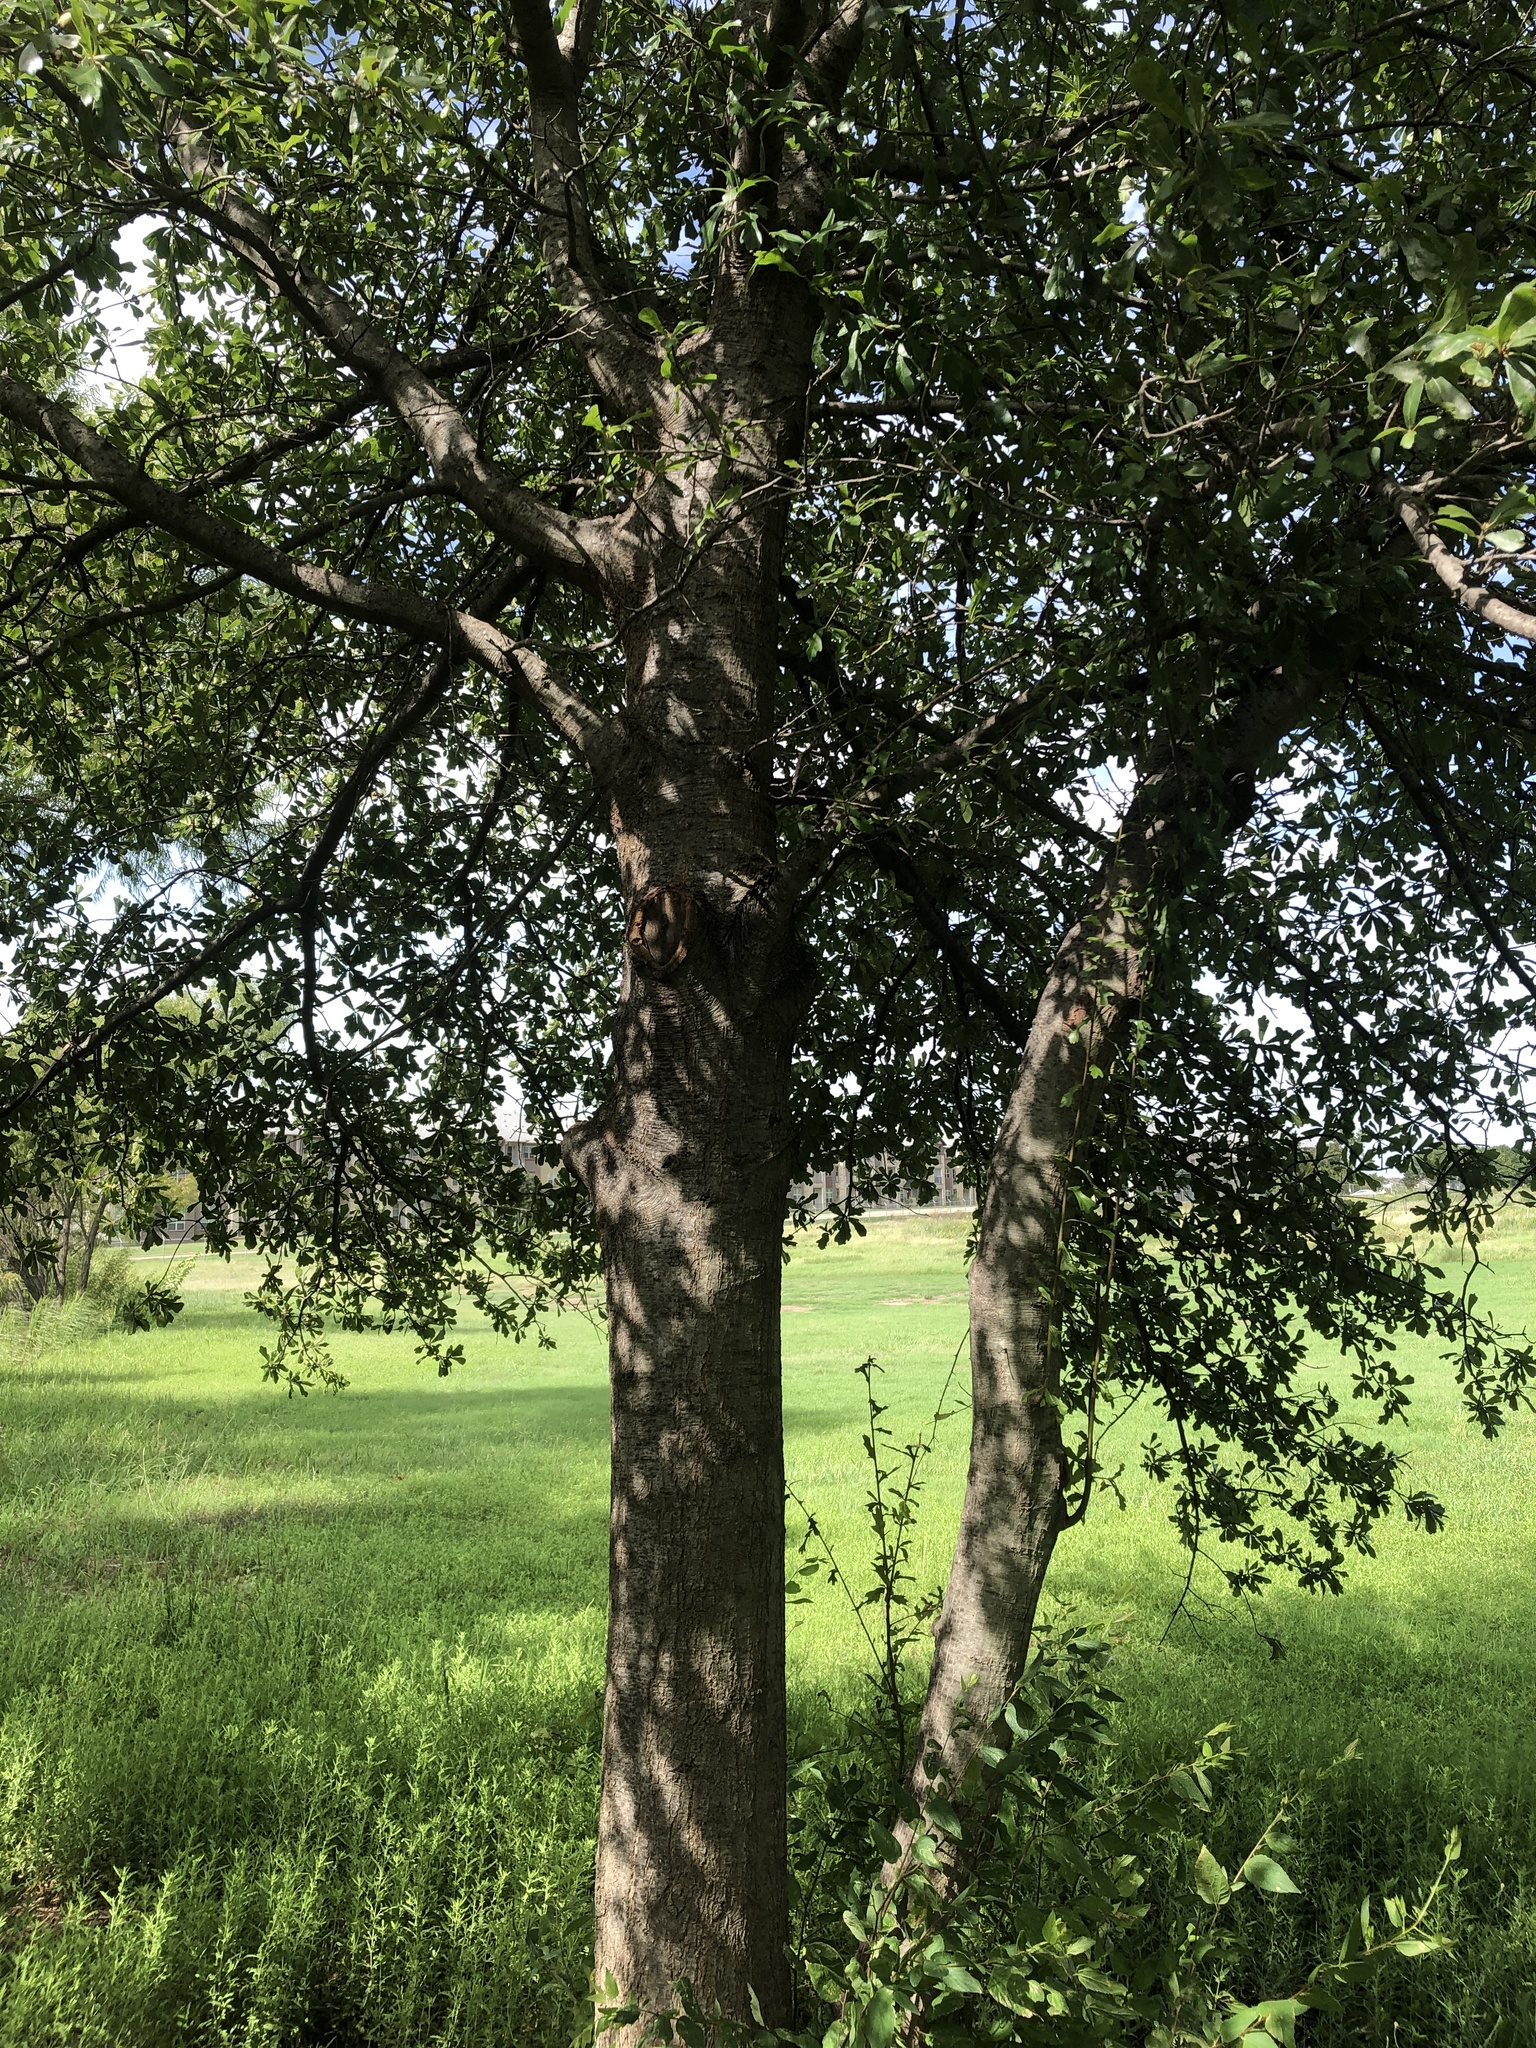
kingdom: Plantae
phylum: Tracheophyta
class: Magnoliopsida
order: Fagales
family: Fagaceae
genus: Quercus
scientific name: Quercus nigra
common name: Water oak
